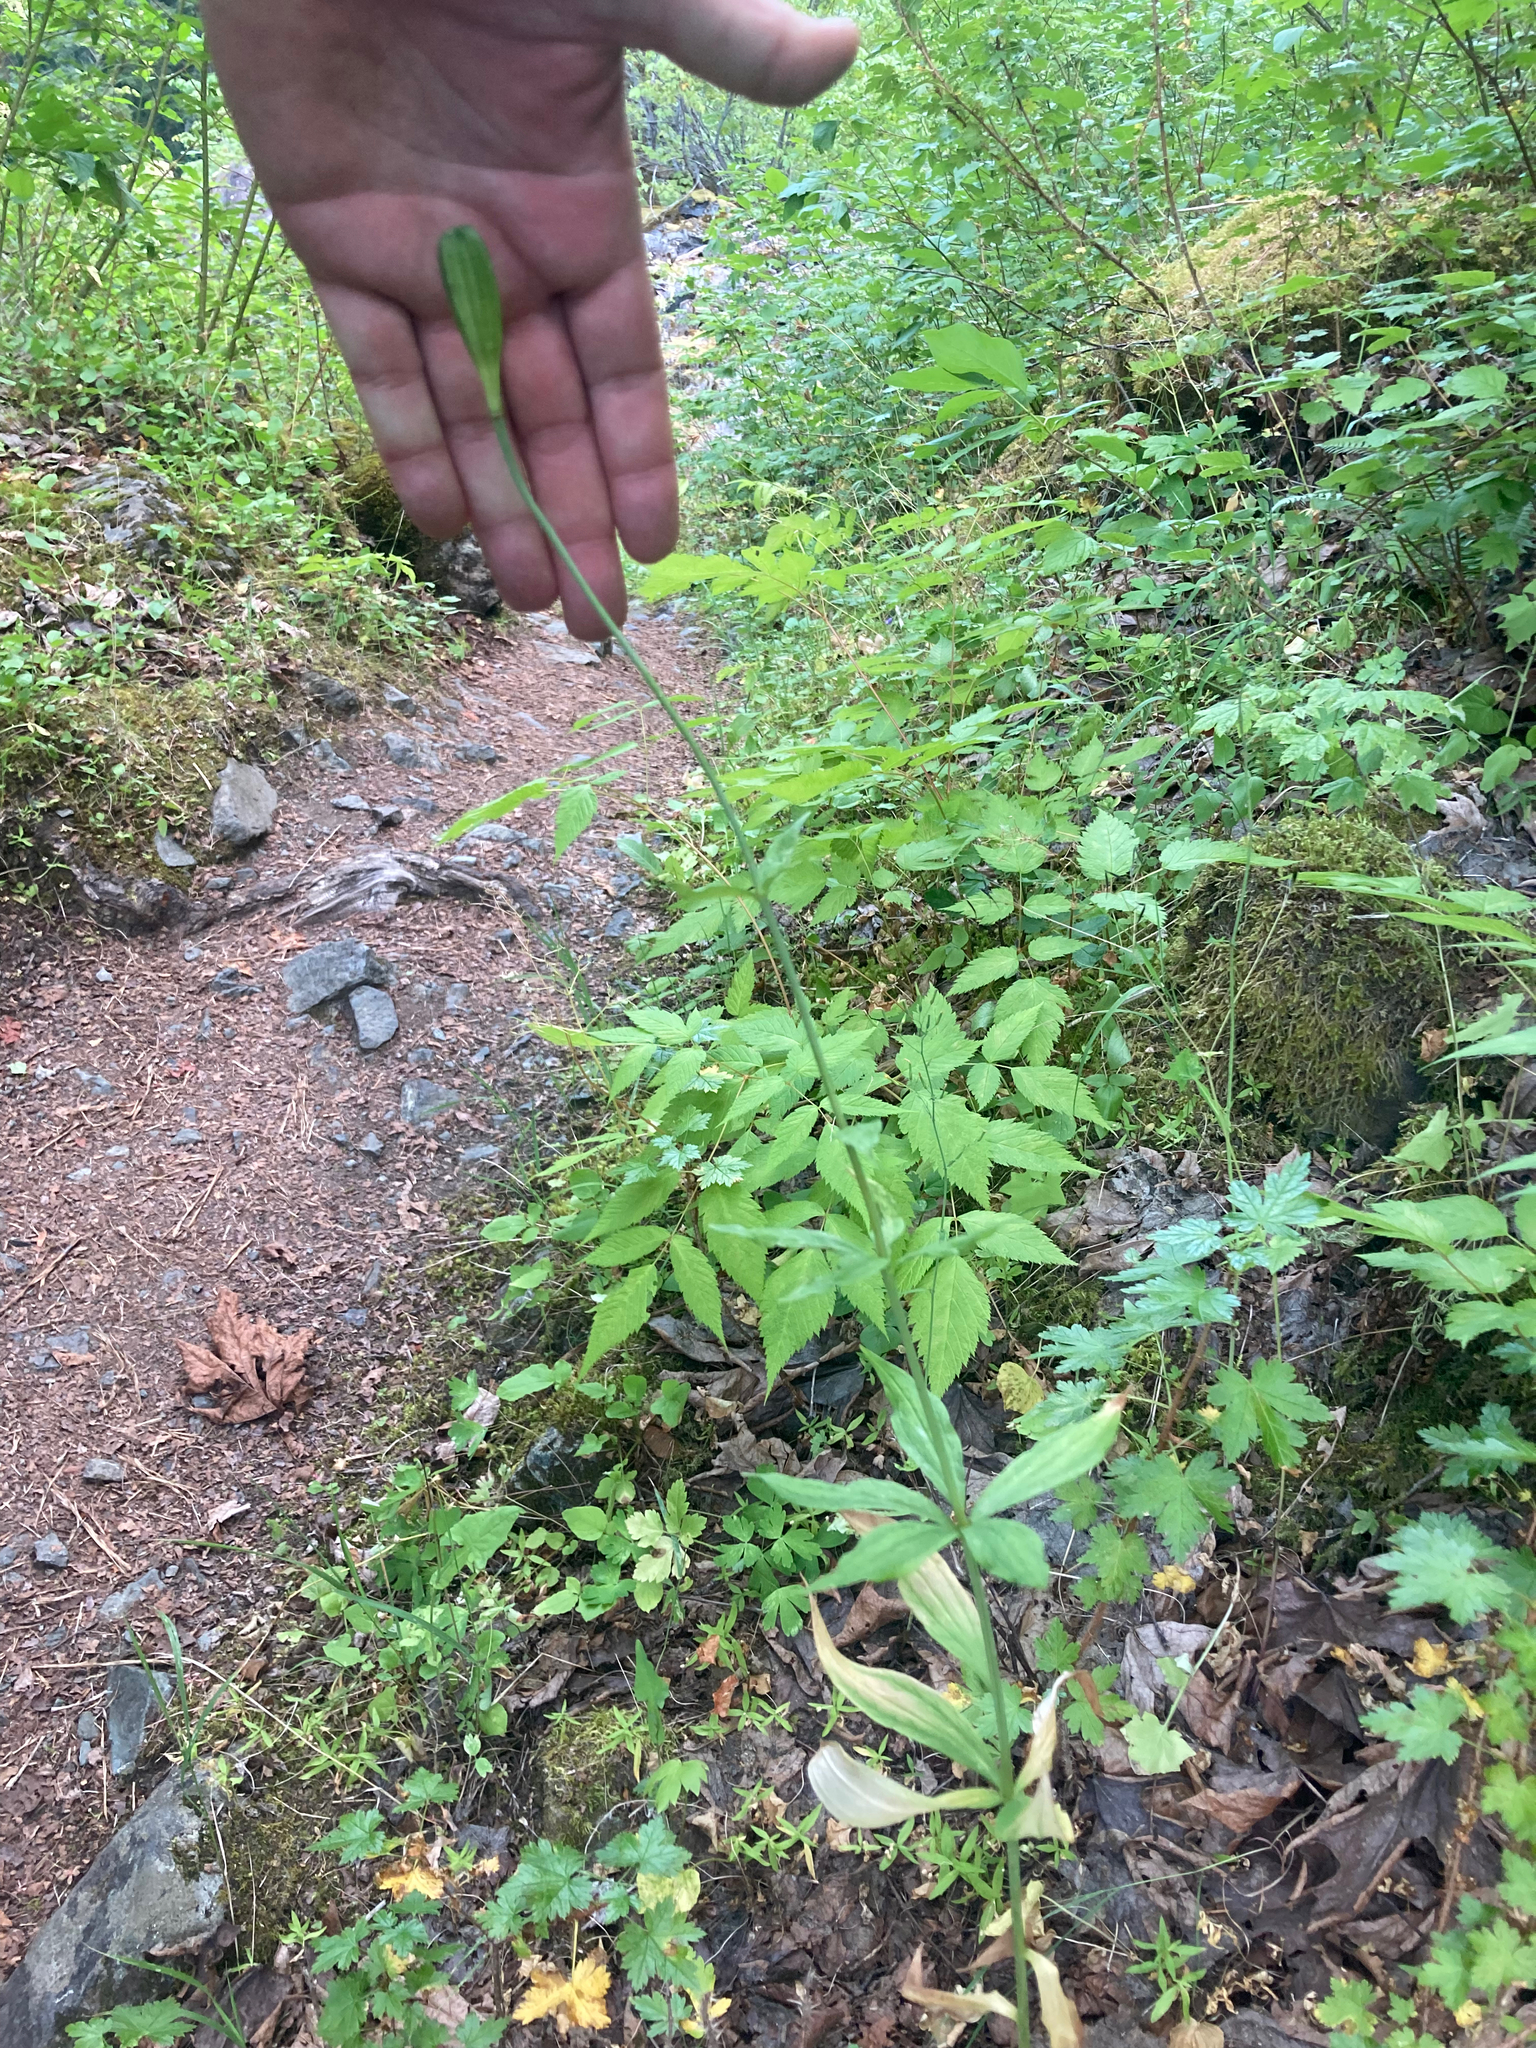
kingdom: Plantae
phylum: Tracheophyta
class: Liliopsida
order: Liliales
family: Liliaceae
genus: Lilium
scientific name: Lilium columbianum
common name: Columbia lily
